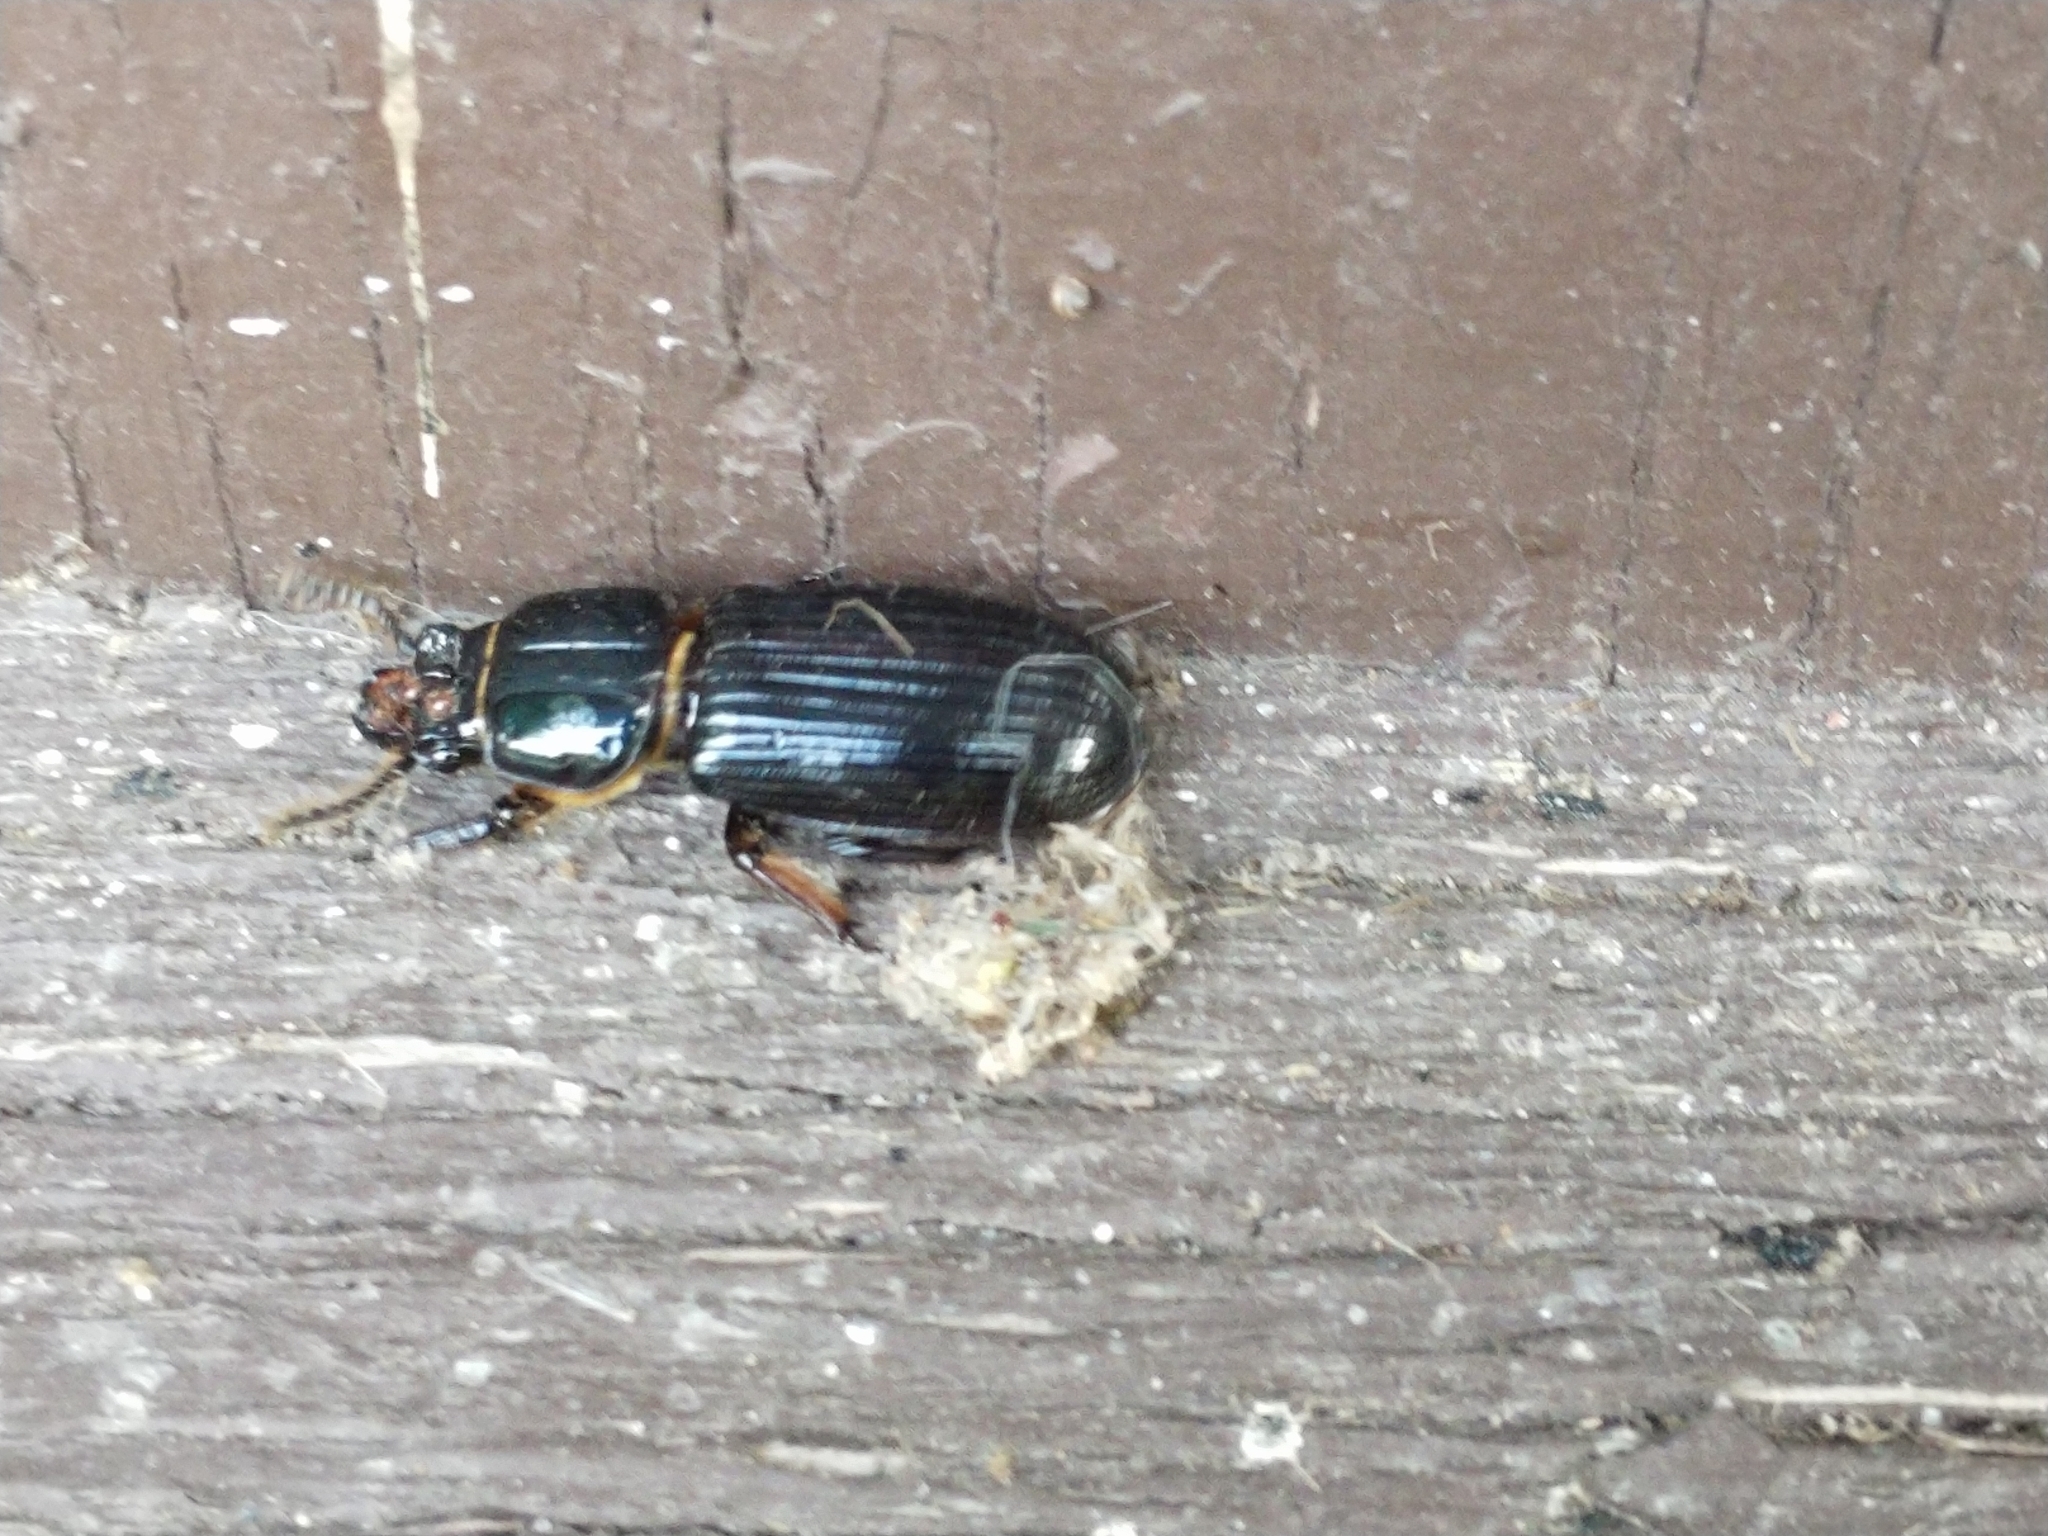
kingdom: Animalia
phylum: Arthropoda
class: Insecta
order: Coleoptera
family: Passalidae
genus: Odontotaenius
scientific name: Odontotaenius disjunctus
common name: Patent leather beetle
